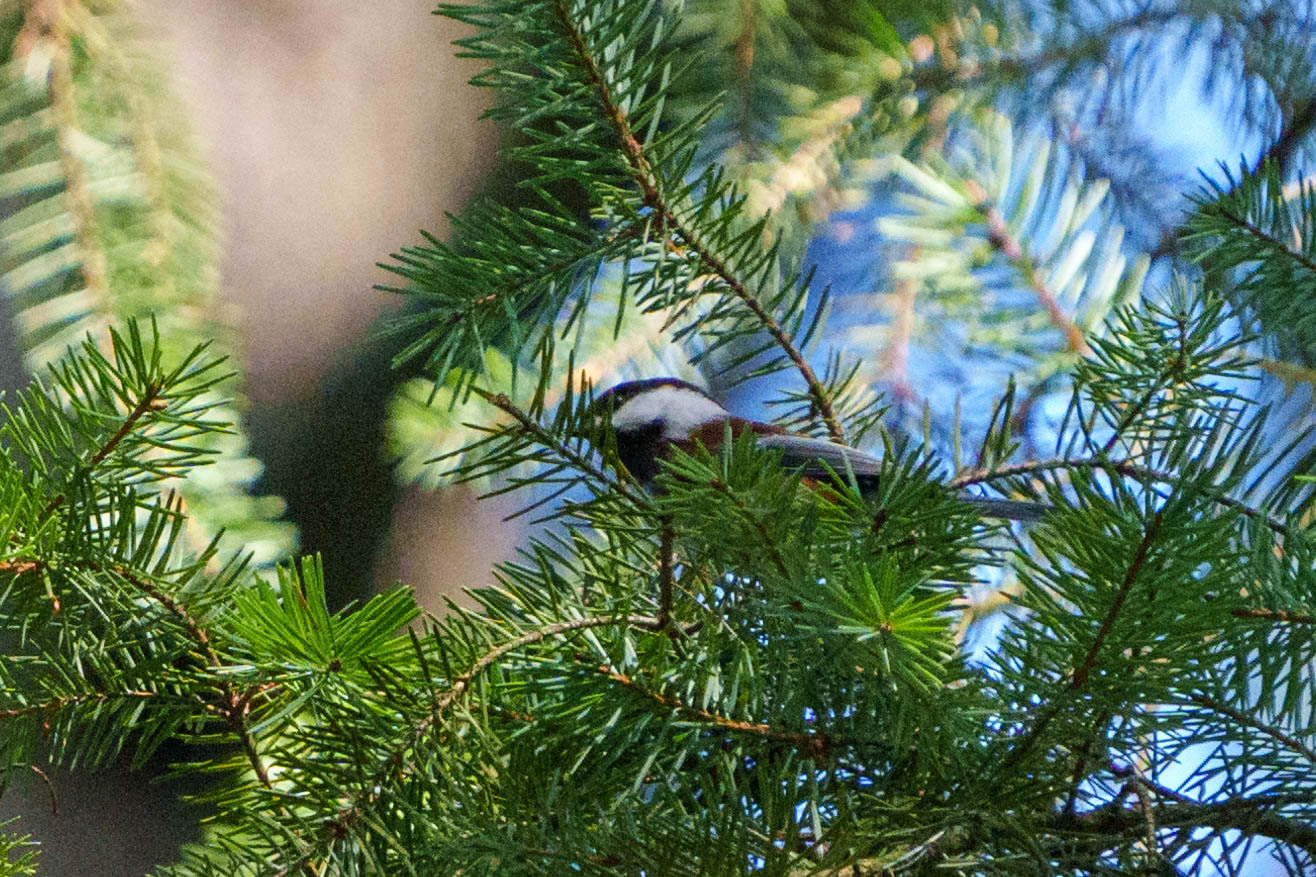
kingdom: Animalia
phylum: Chordata
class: Aves
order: Passeriformes
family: Paridae
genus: Poecile
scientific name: Poecile rufescens
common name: Chestnut-backed chickadee
